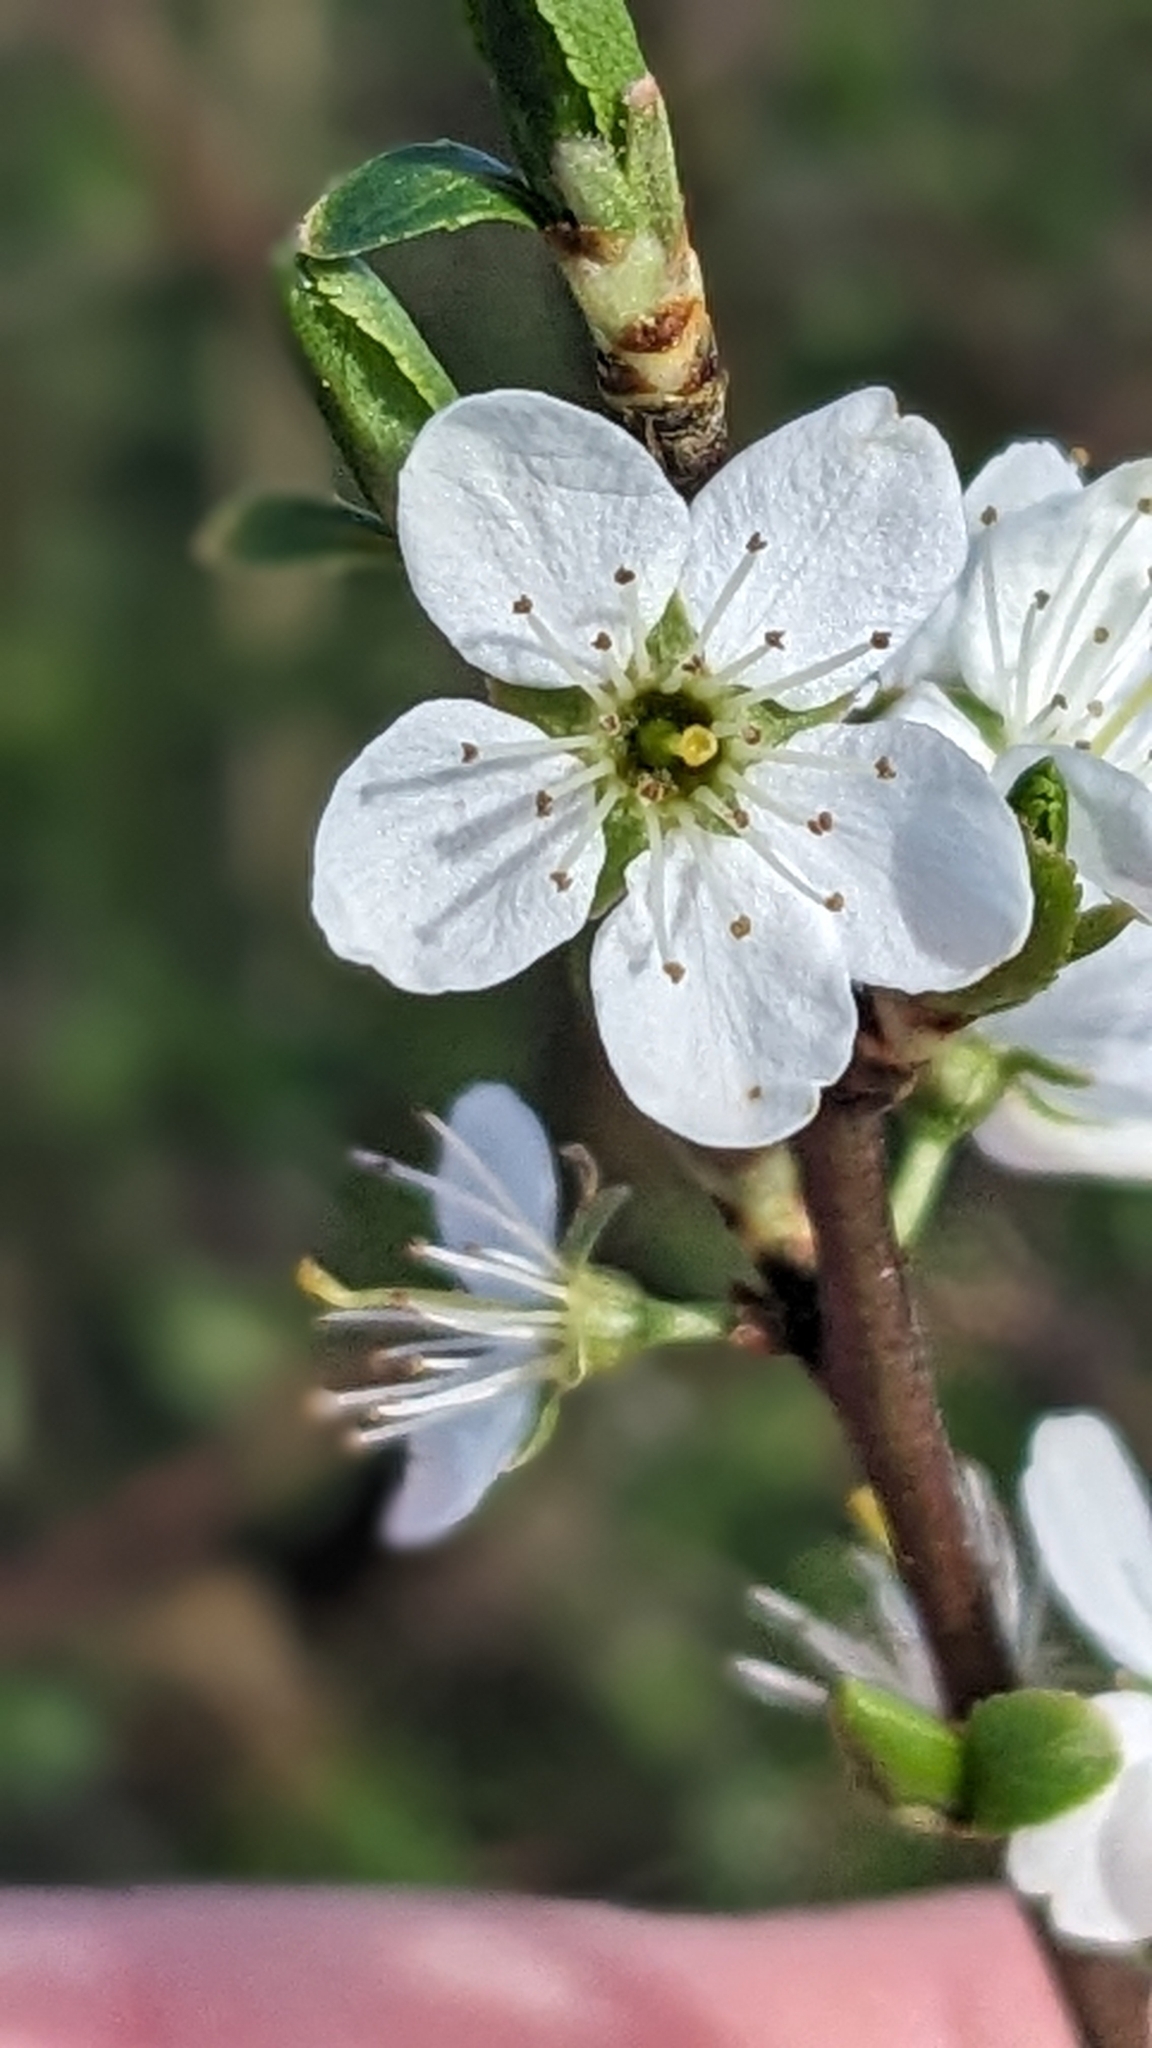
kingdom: Plantae
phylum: Tracheophyta
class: Magnoliopsida
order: Rosales
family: Rosaceae
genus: Prunus
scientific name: Prunus spinosa
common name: Blackthorn
